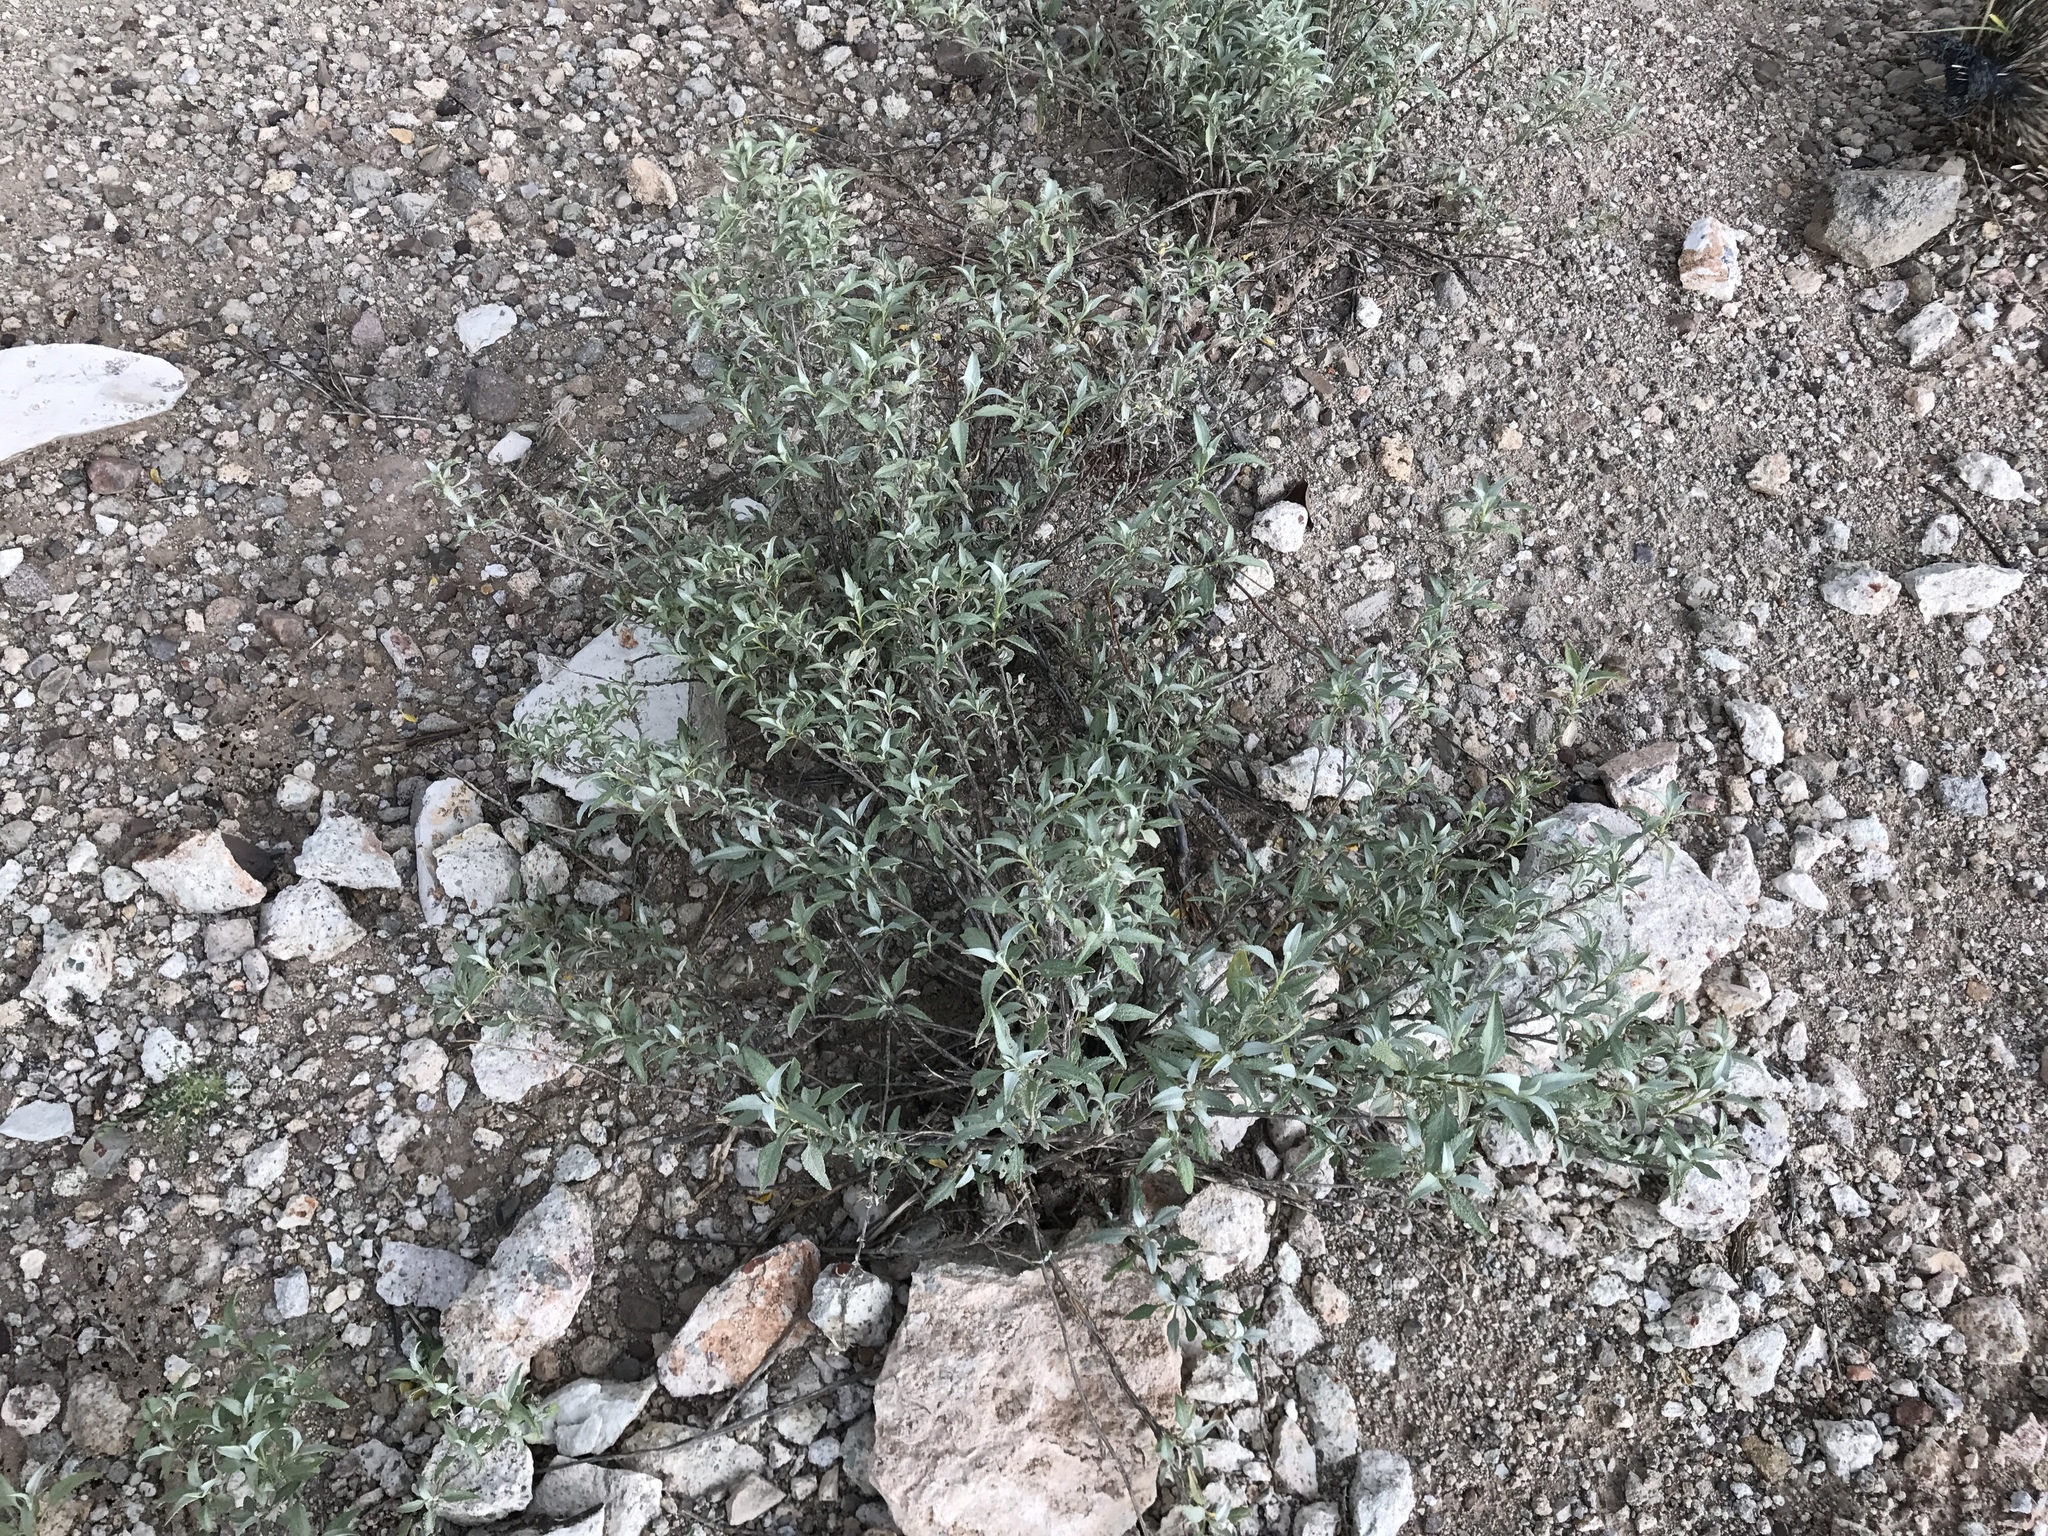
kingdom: Plantae
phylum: Tracheophyta
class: Magnoliopsida
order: Asterales
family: Asteraceae
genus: Ambrosia
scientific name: Ambrosia deltoidea
